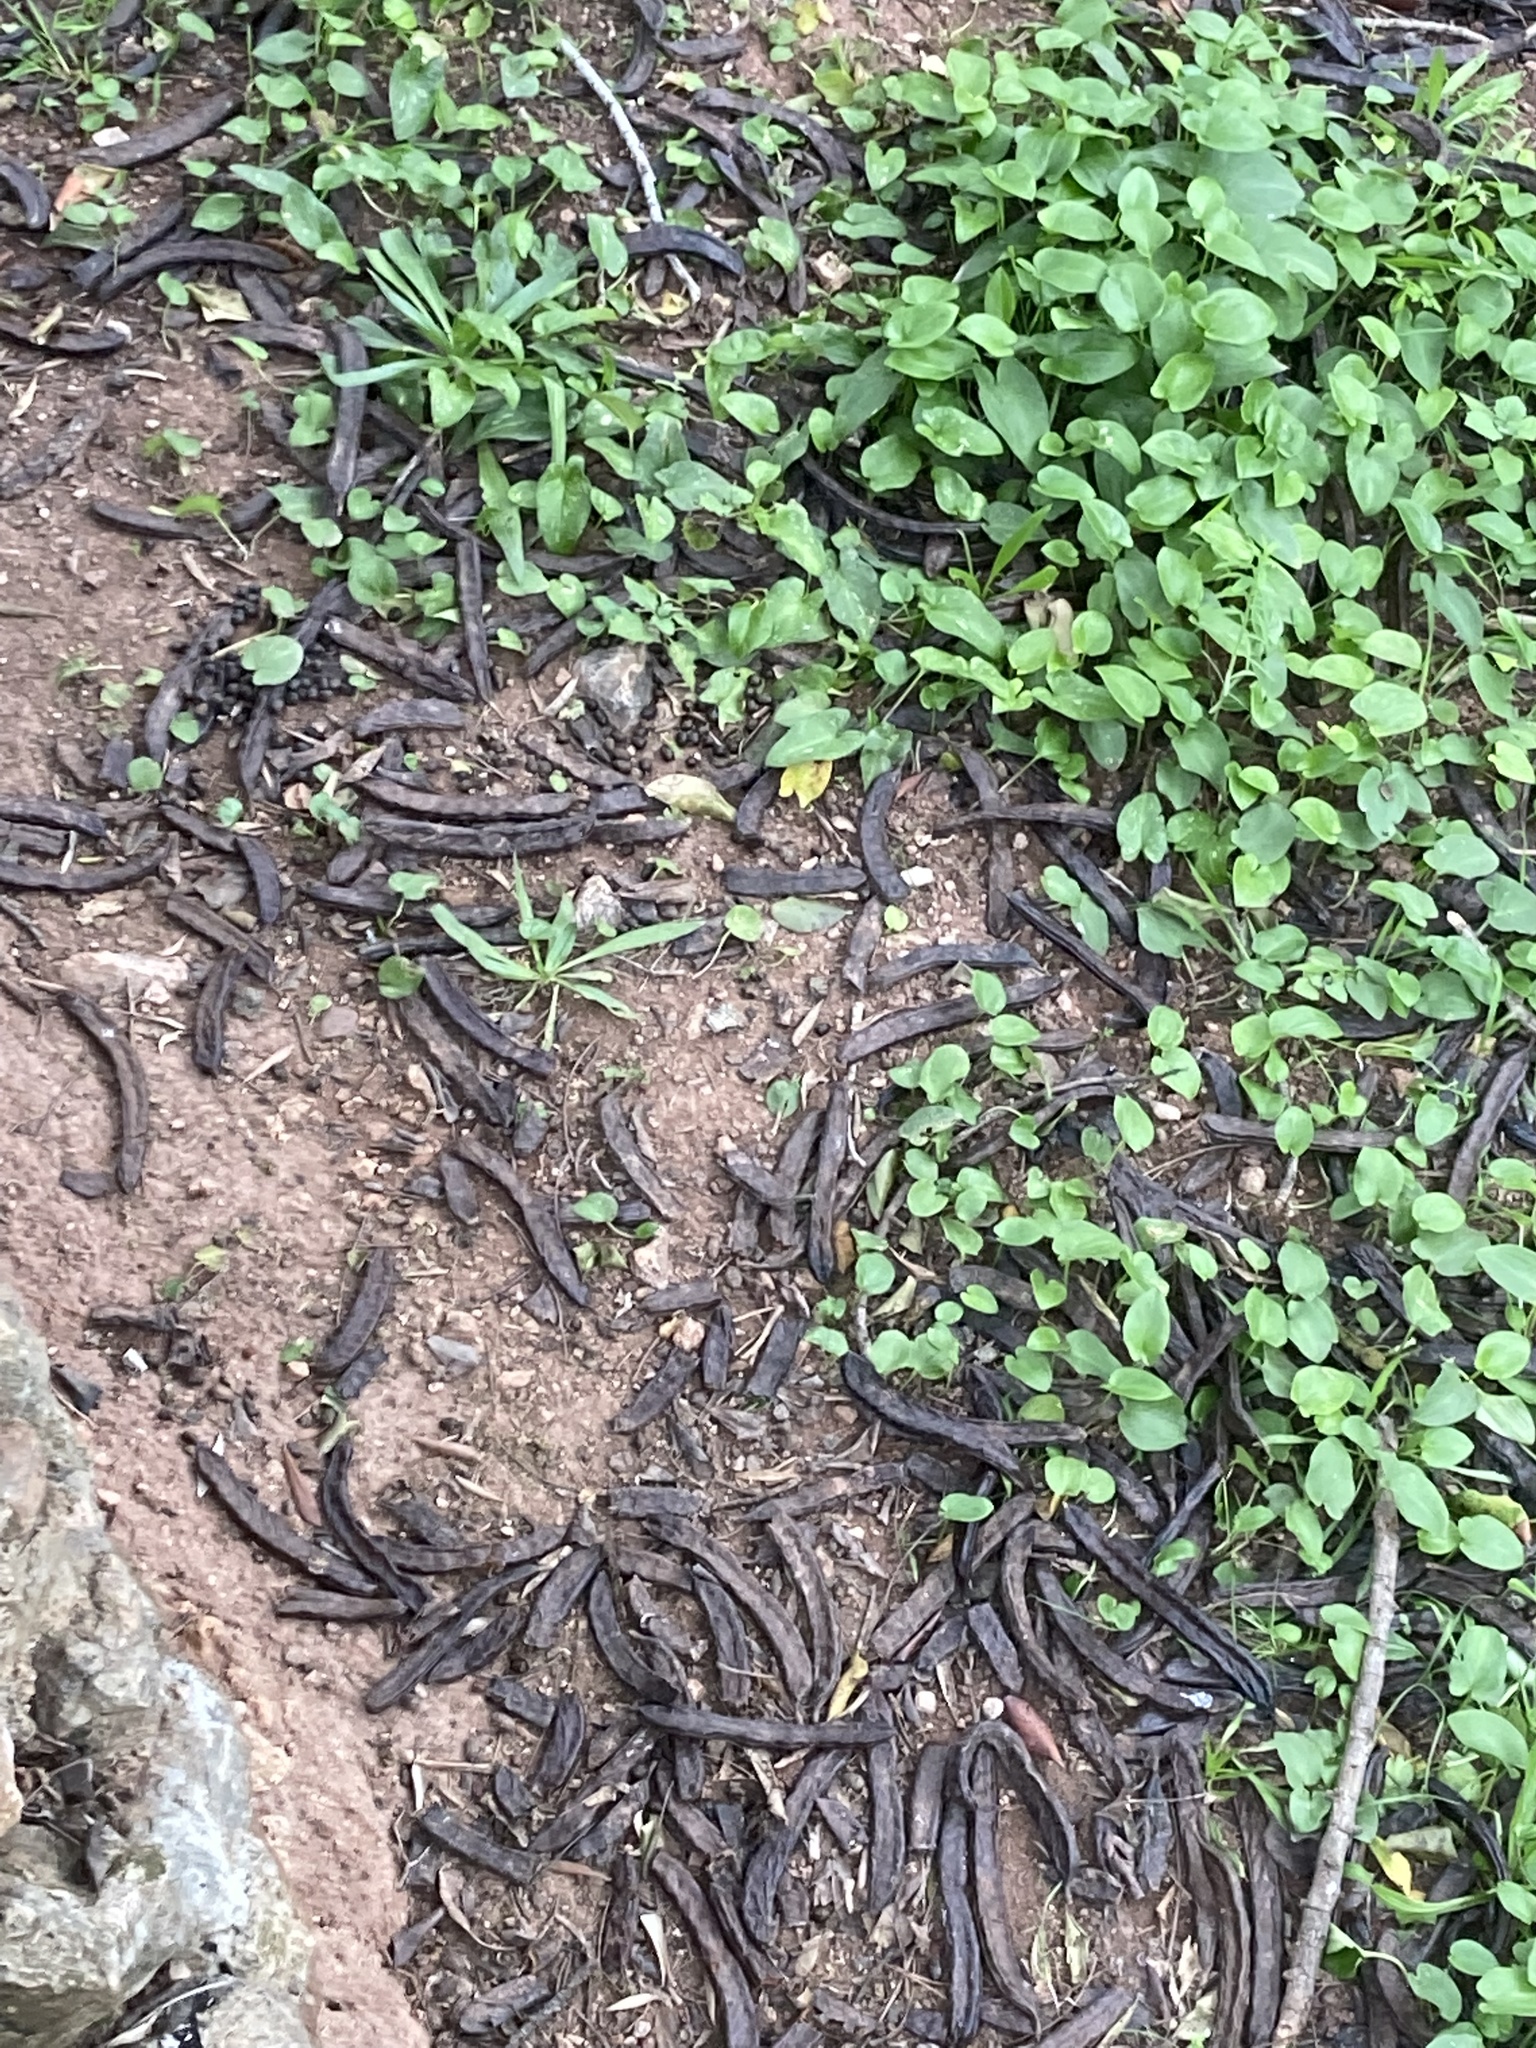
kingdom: Plantae
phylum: Tracheophyta
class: Magnoliopsida
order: Fabales
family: Fabaceae
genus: Ceratonia
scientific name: Ceratonia siliqua
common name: Carob
